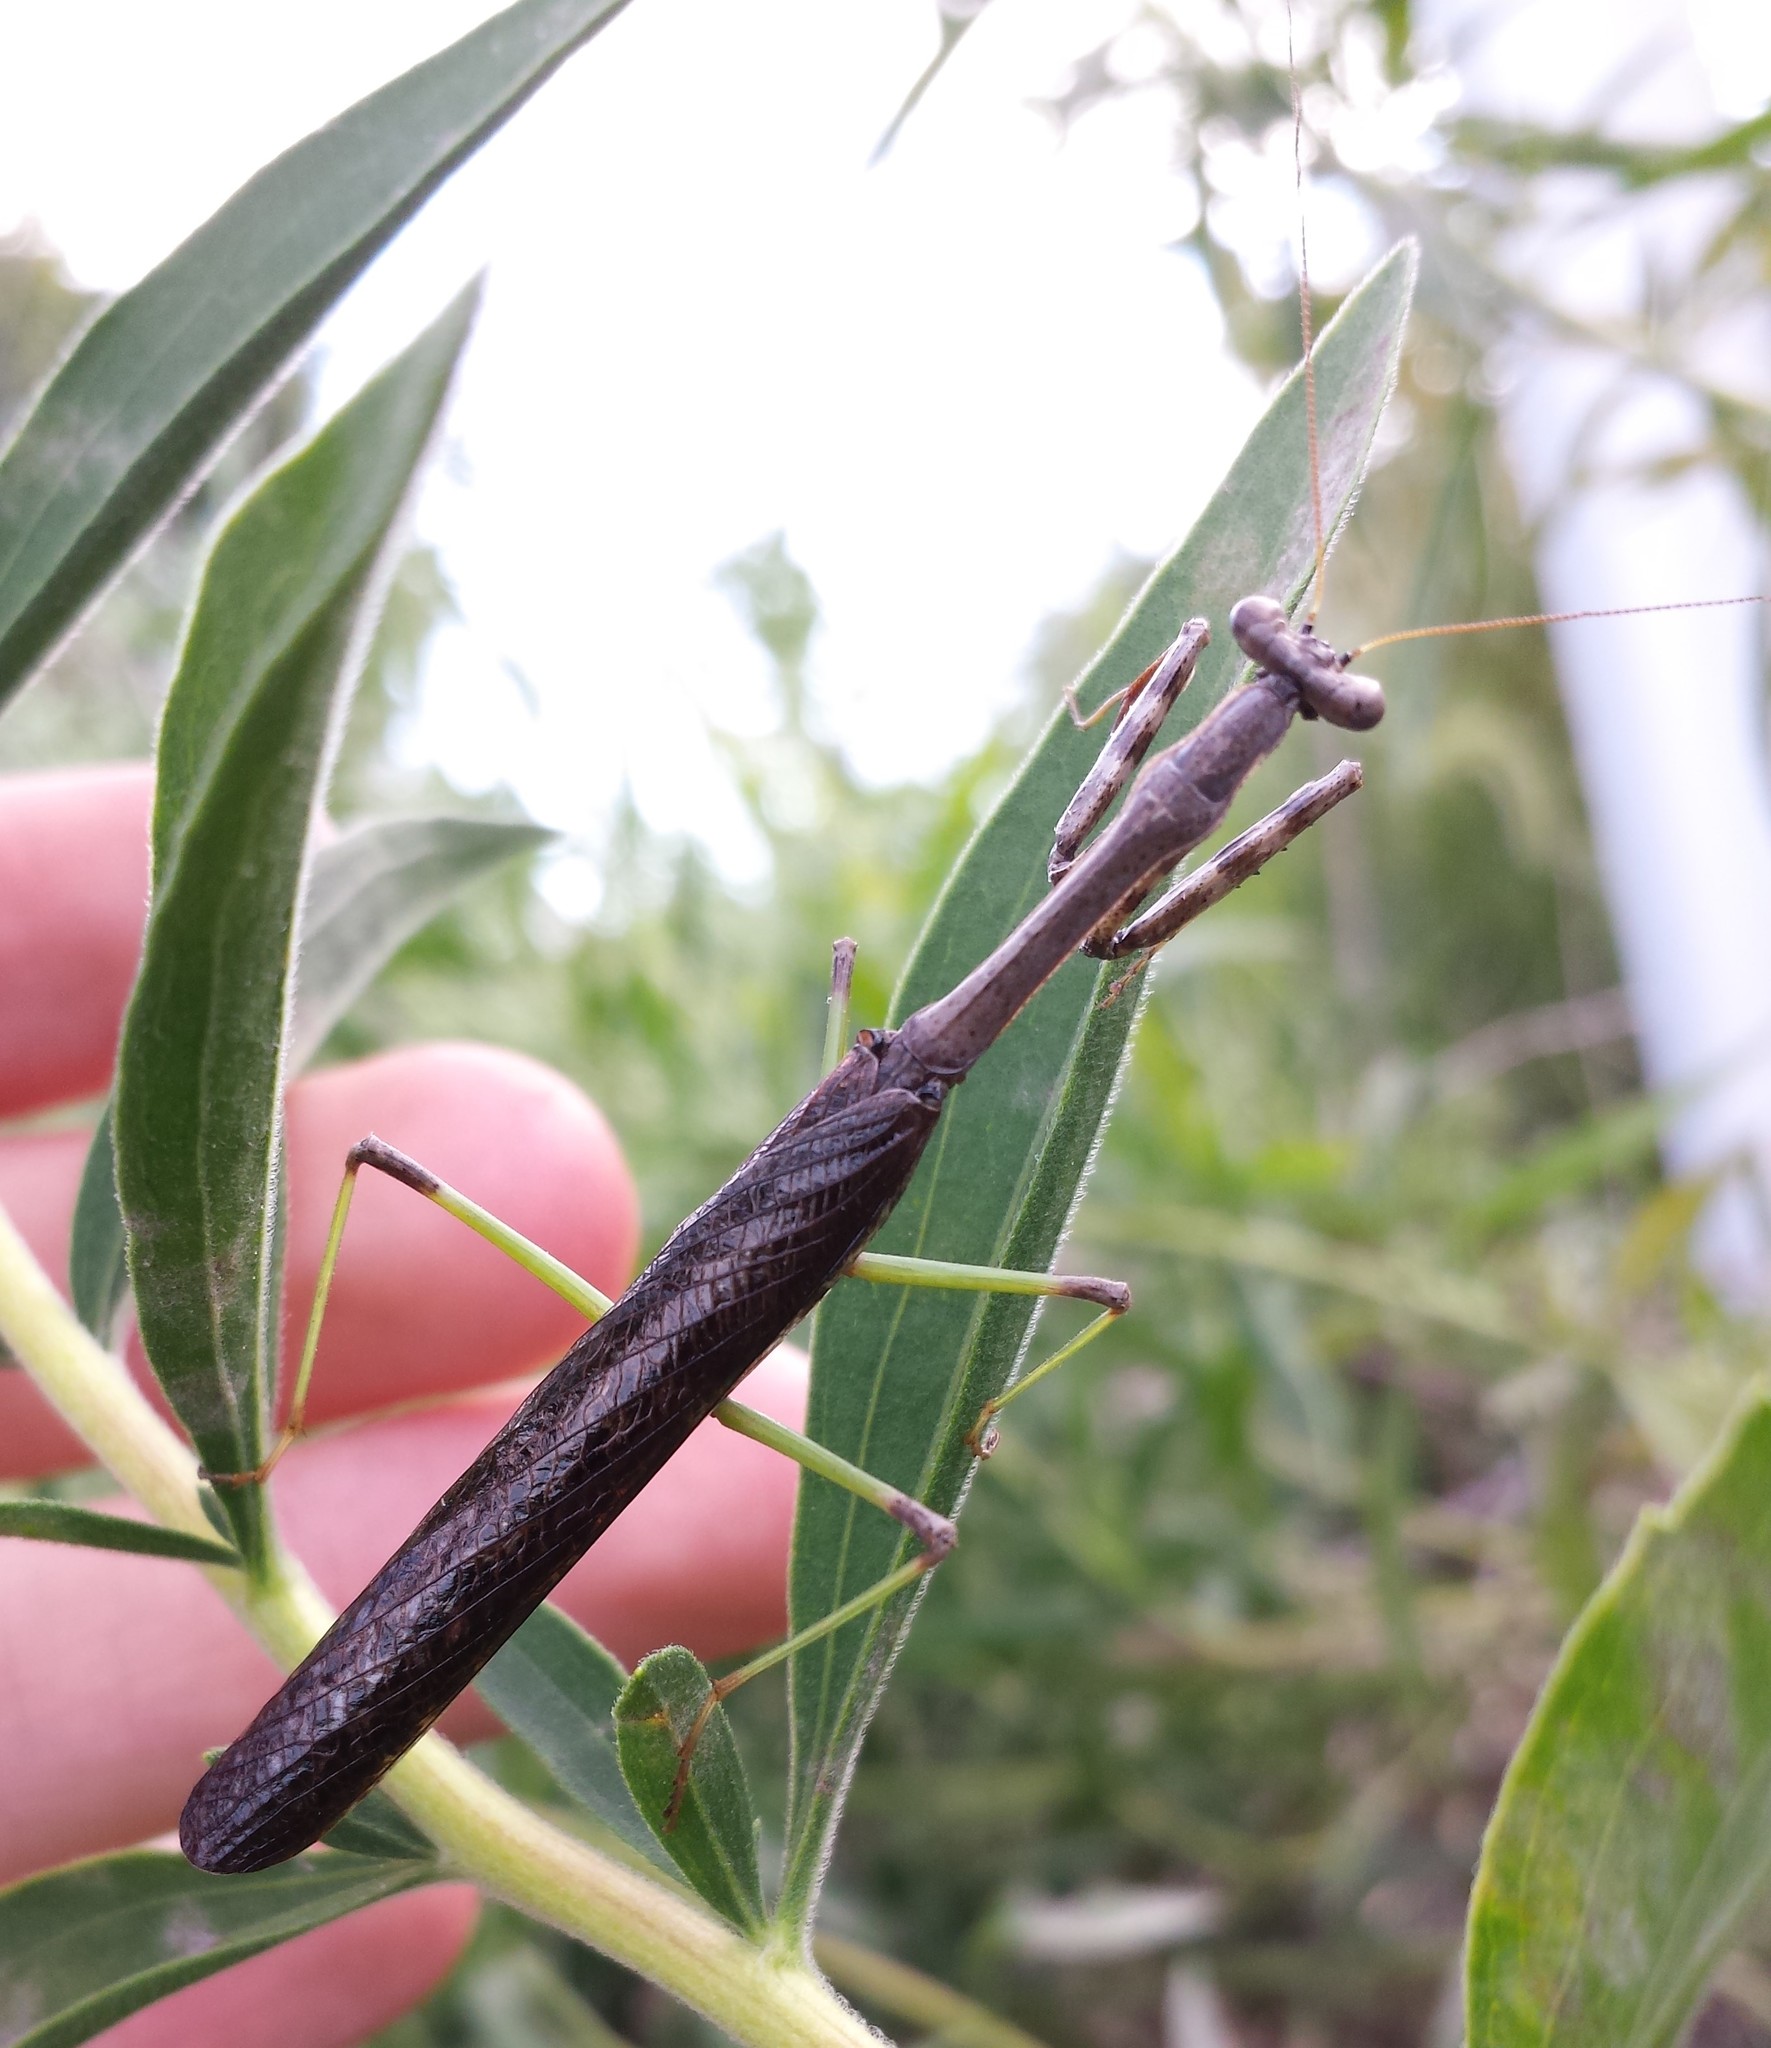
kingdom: Animalia
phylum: Arthropoda
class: Insecta
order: Mantodea
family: Mantidae
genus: Stagmomantis
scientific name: Stagmomantis carolina
